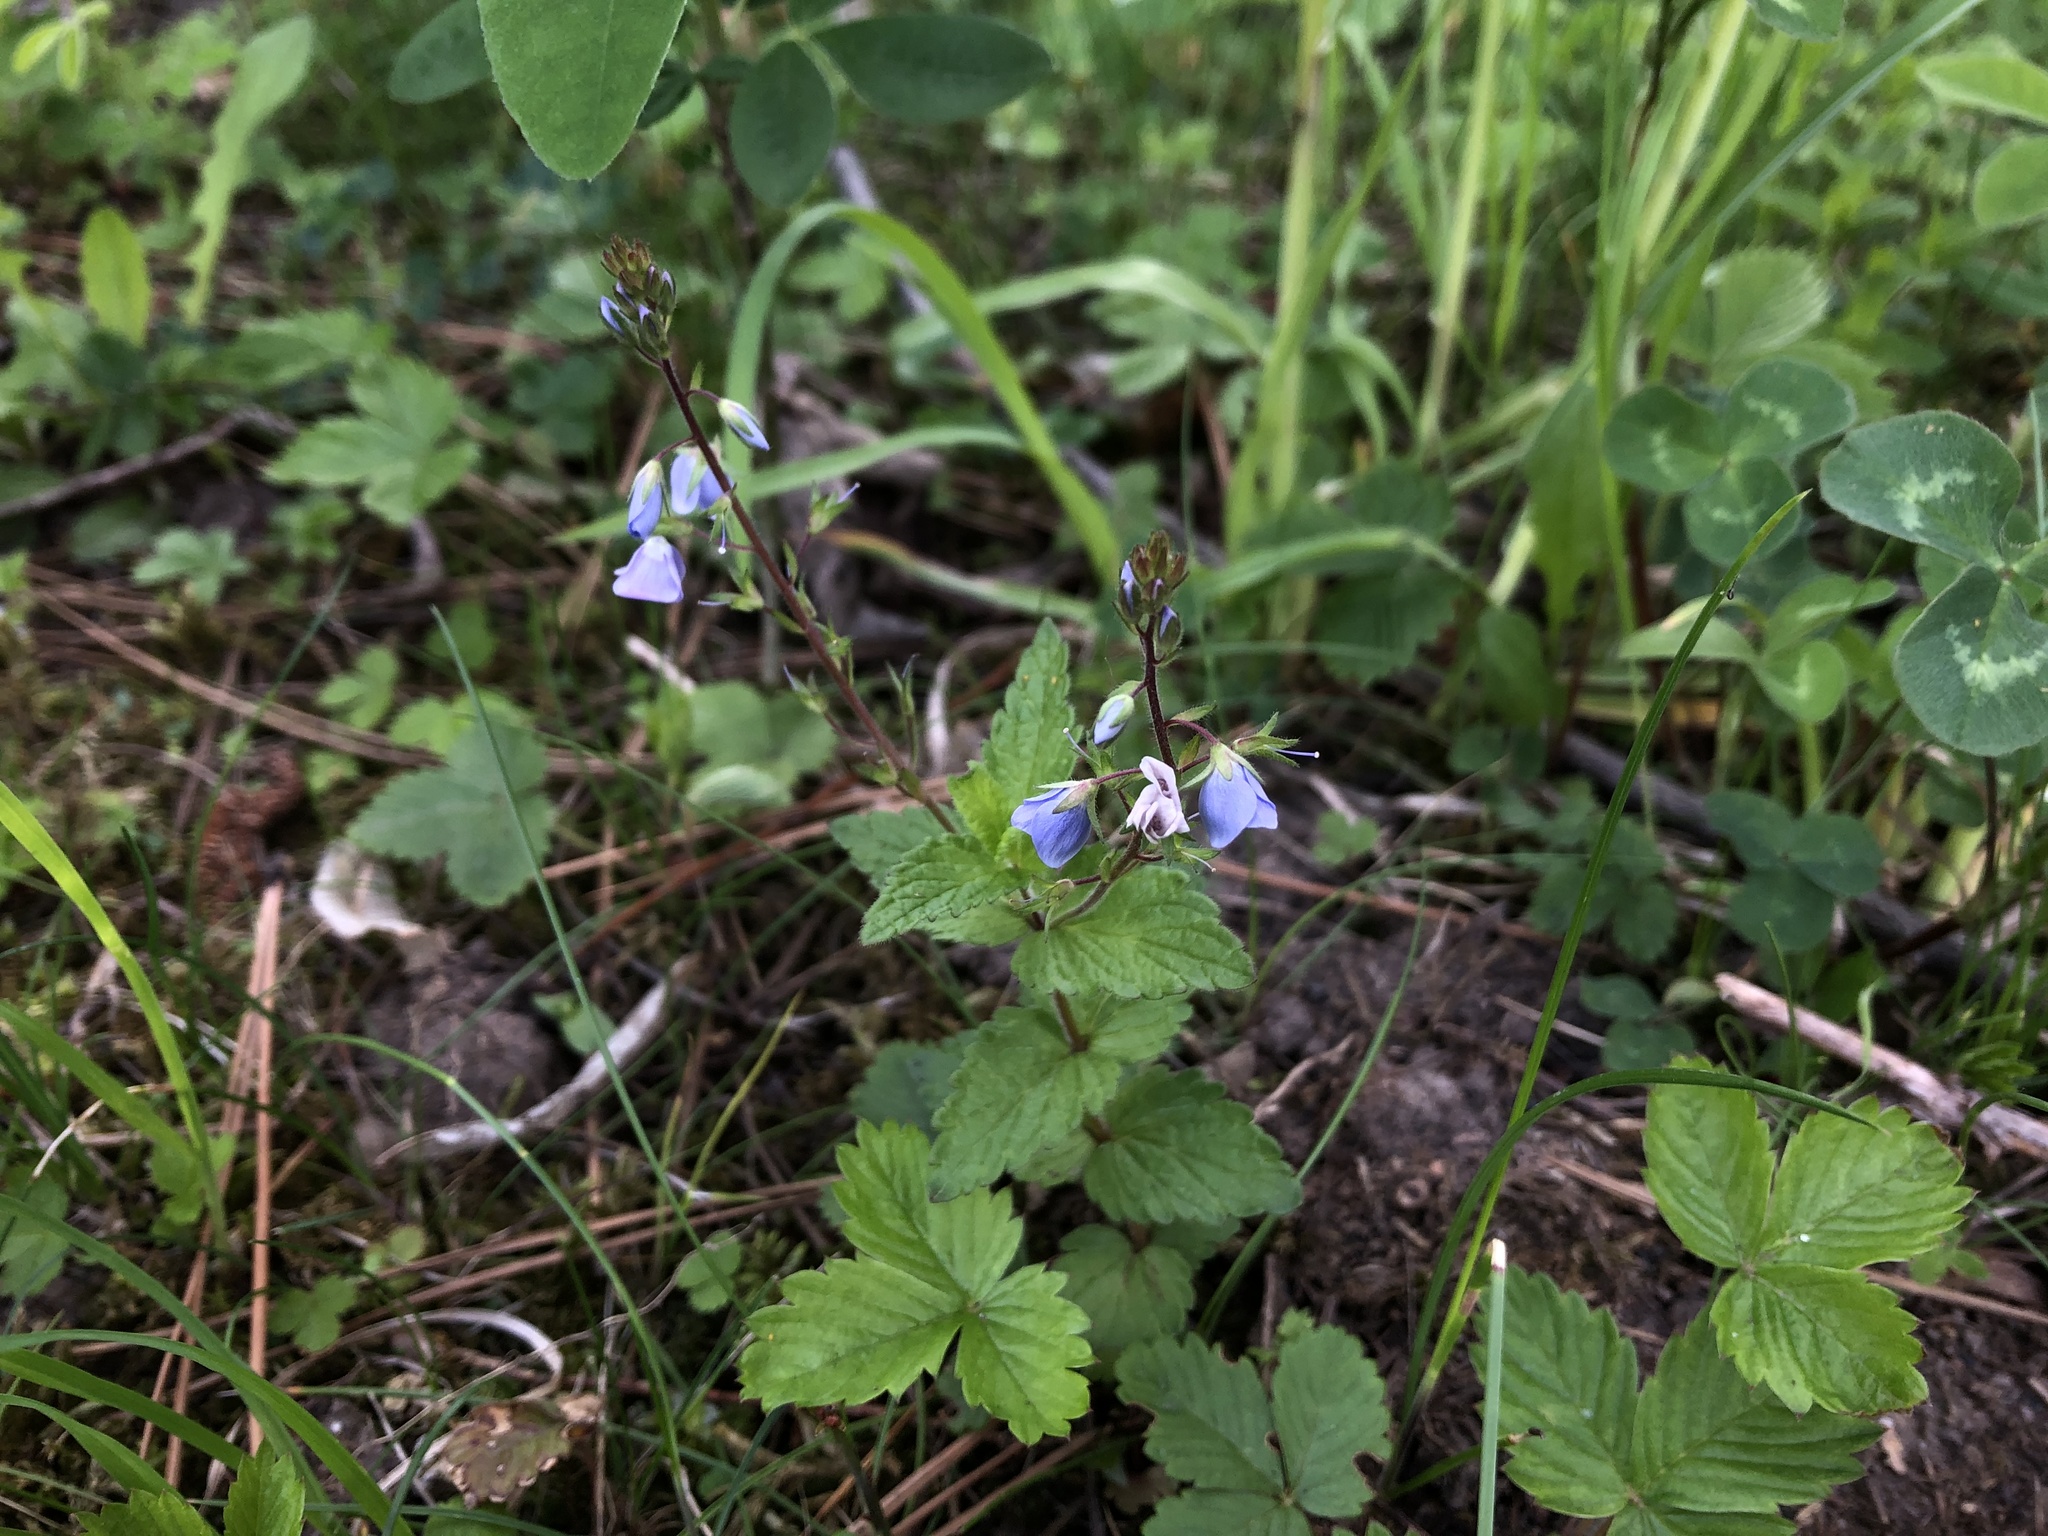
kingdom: Plantae
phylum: Tracheophyta
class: Magnoliopsida
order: Lamiales
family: Plantaginaceae
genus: Veronica
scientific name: Veronica chamaedrys
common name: Germander speedwell
